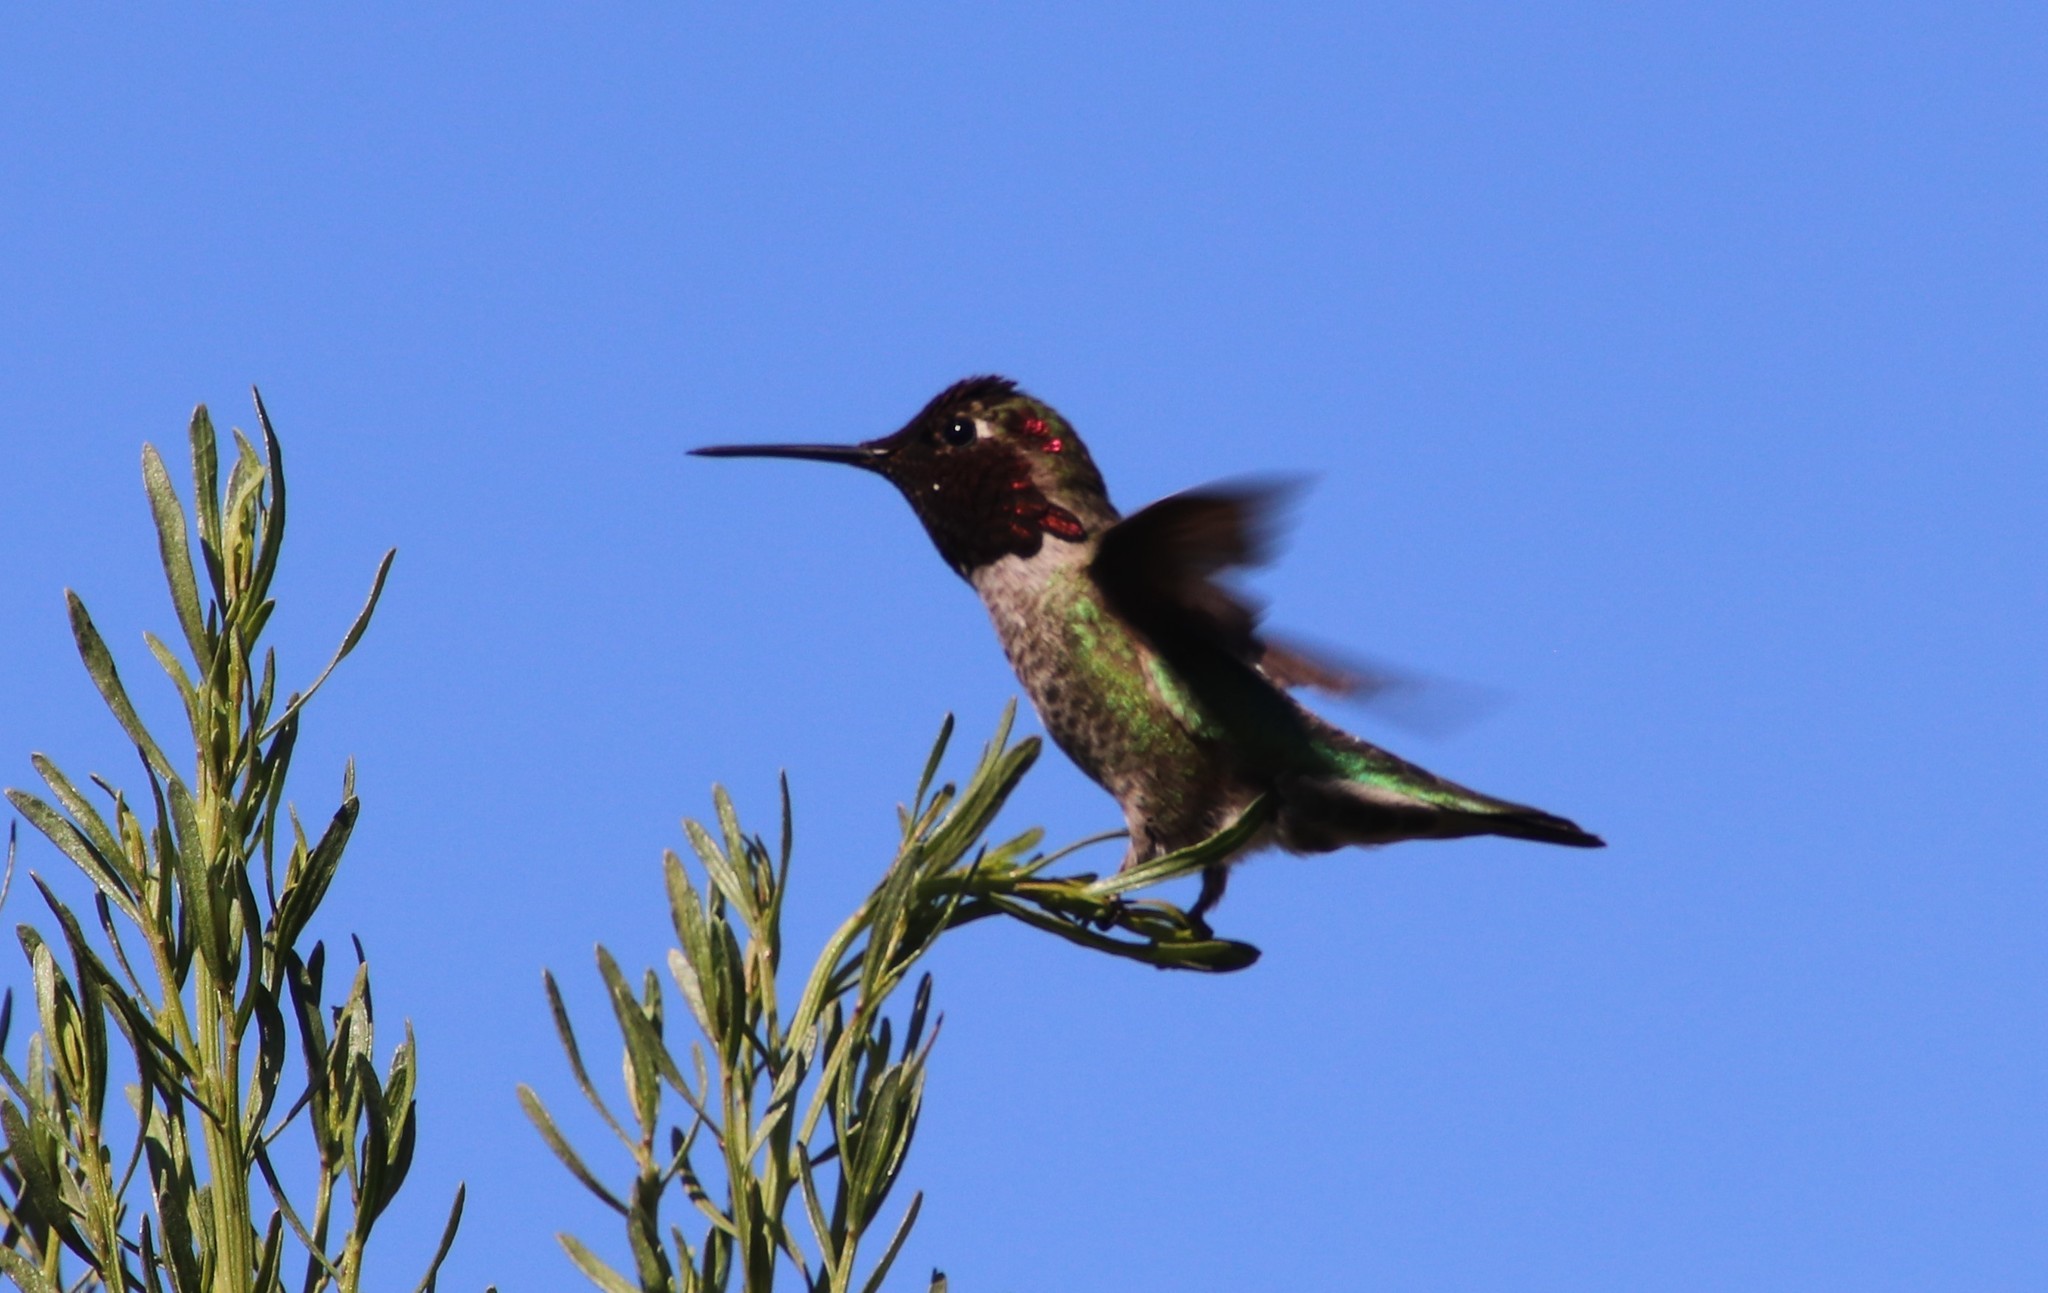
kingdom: Animalia
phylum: Chordata
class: Aves
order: Apodiformes
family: Trochilidae
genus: Calypte
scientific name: Calypte anna
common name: Anna's hummingbird
